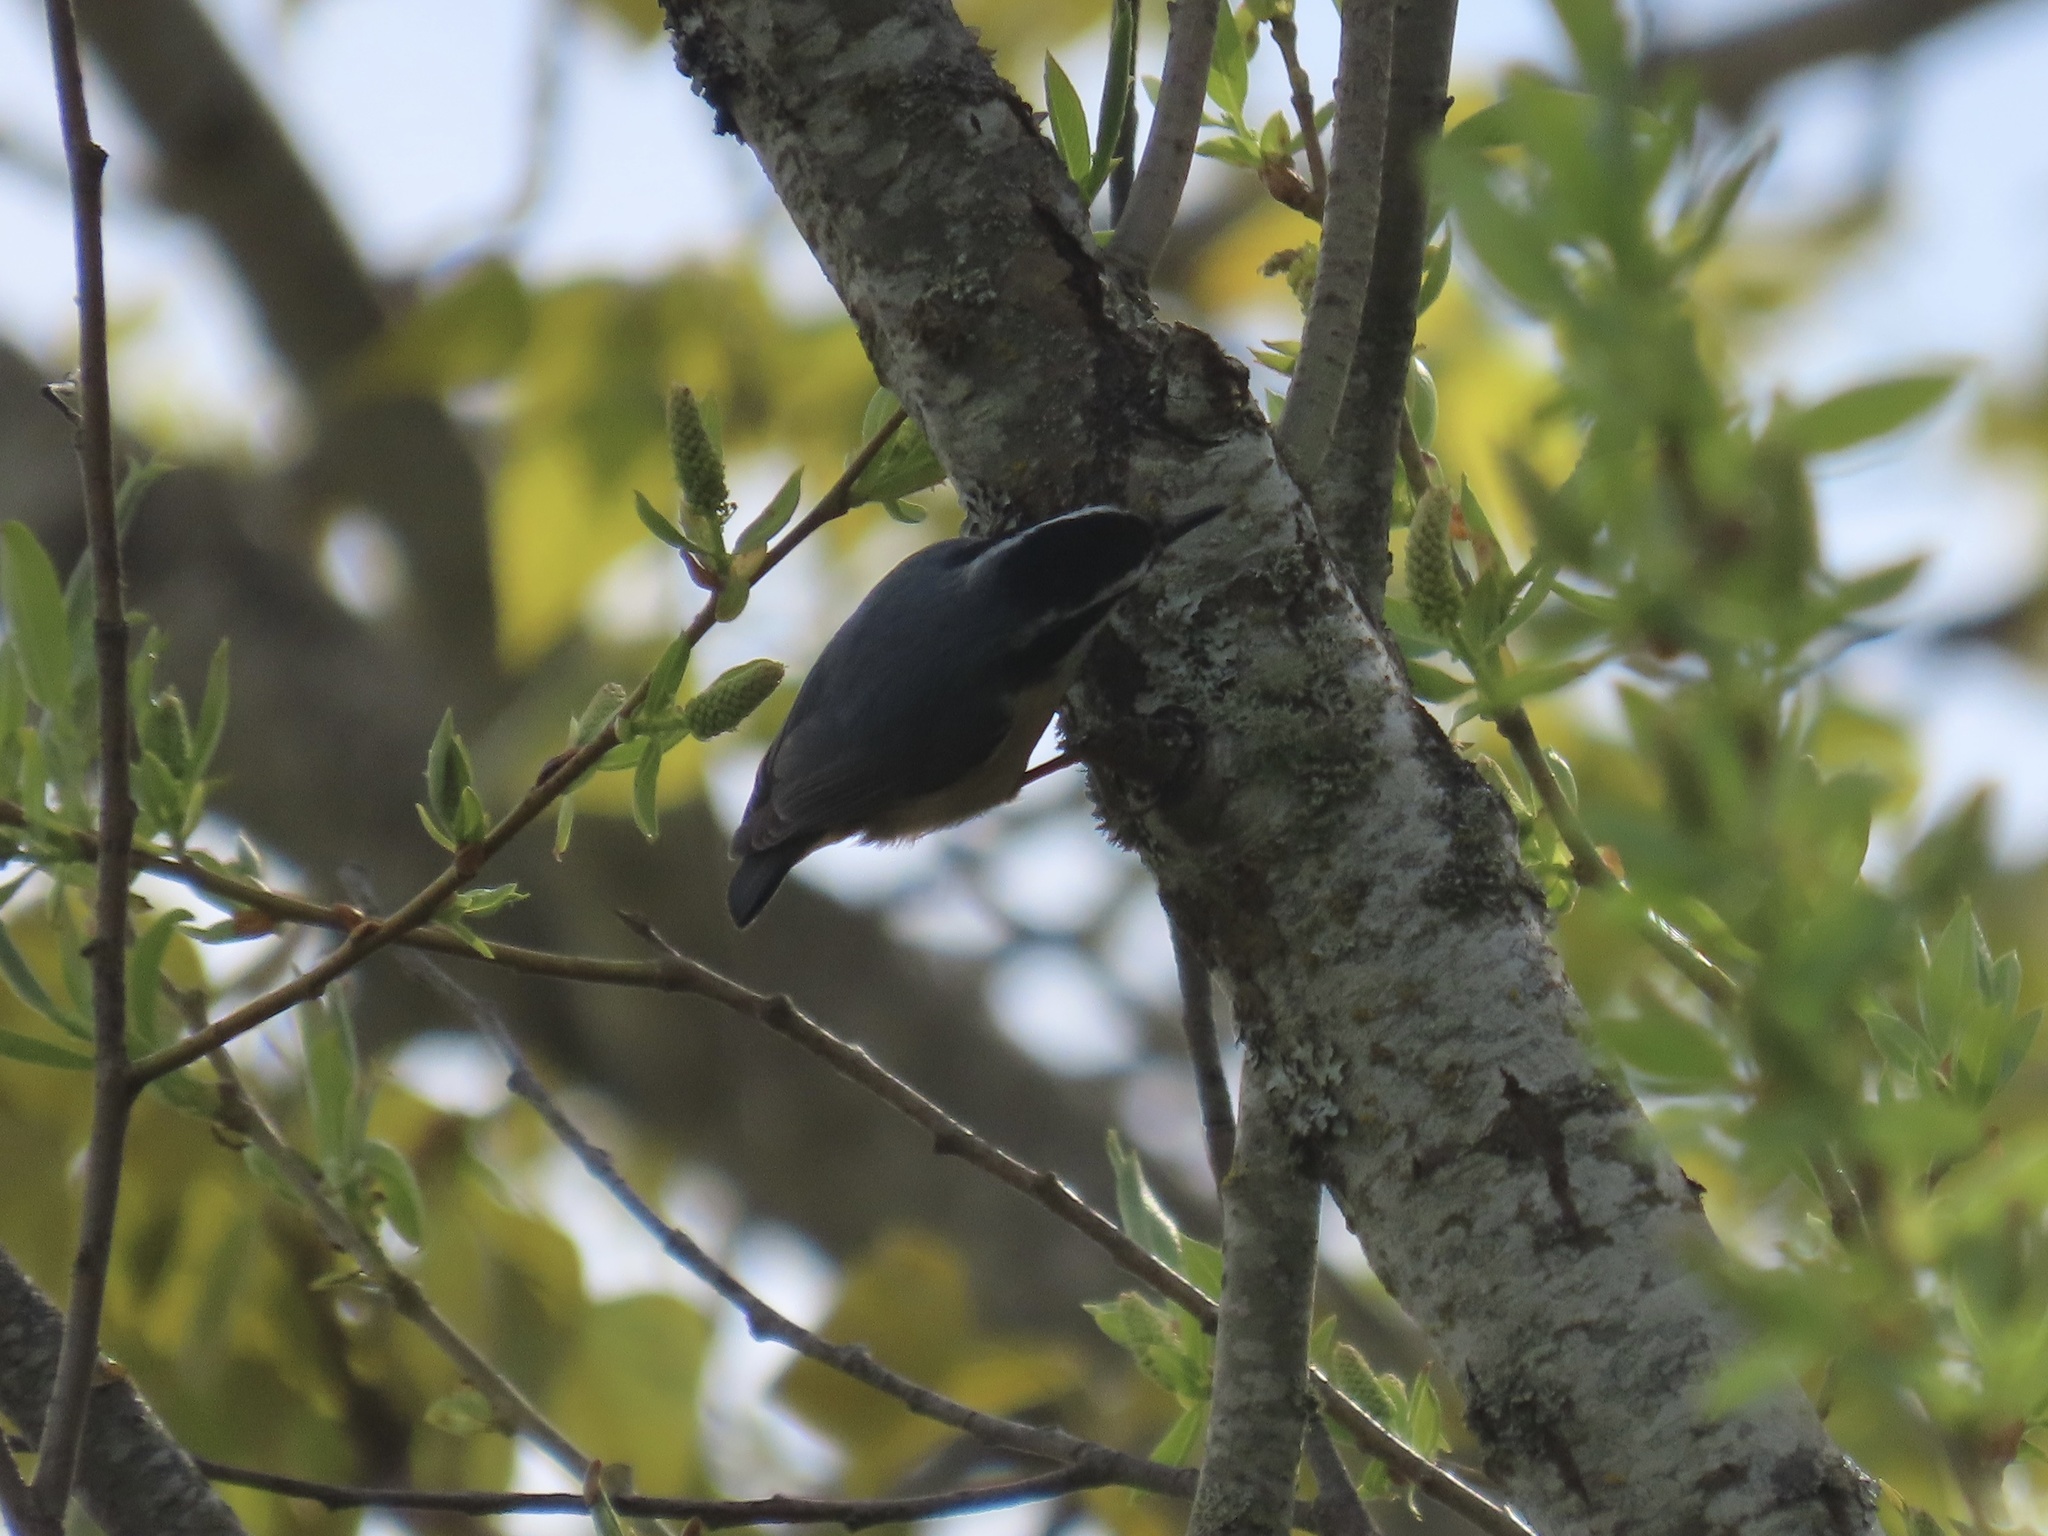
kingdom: Animalia
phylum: Chordata
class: Aves
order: Passeriformes
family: Sittidae
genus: Sitta
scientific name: Sitta canadensis
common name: Red-breasted nuthatch
